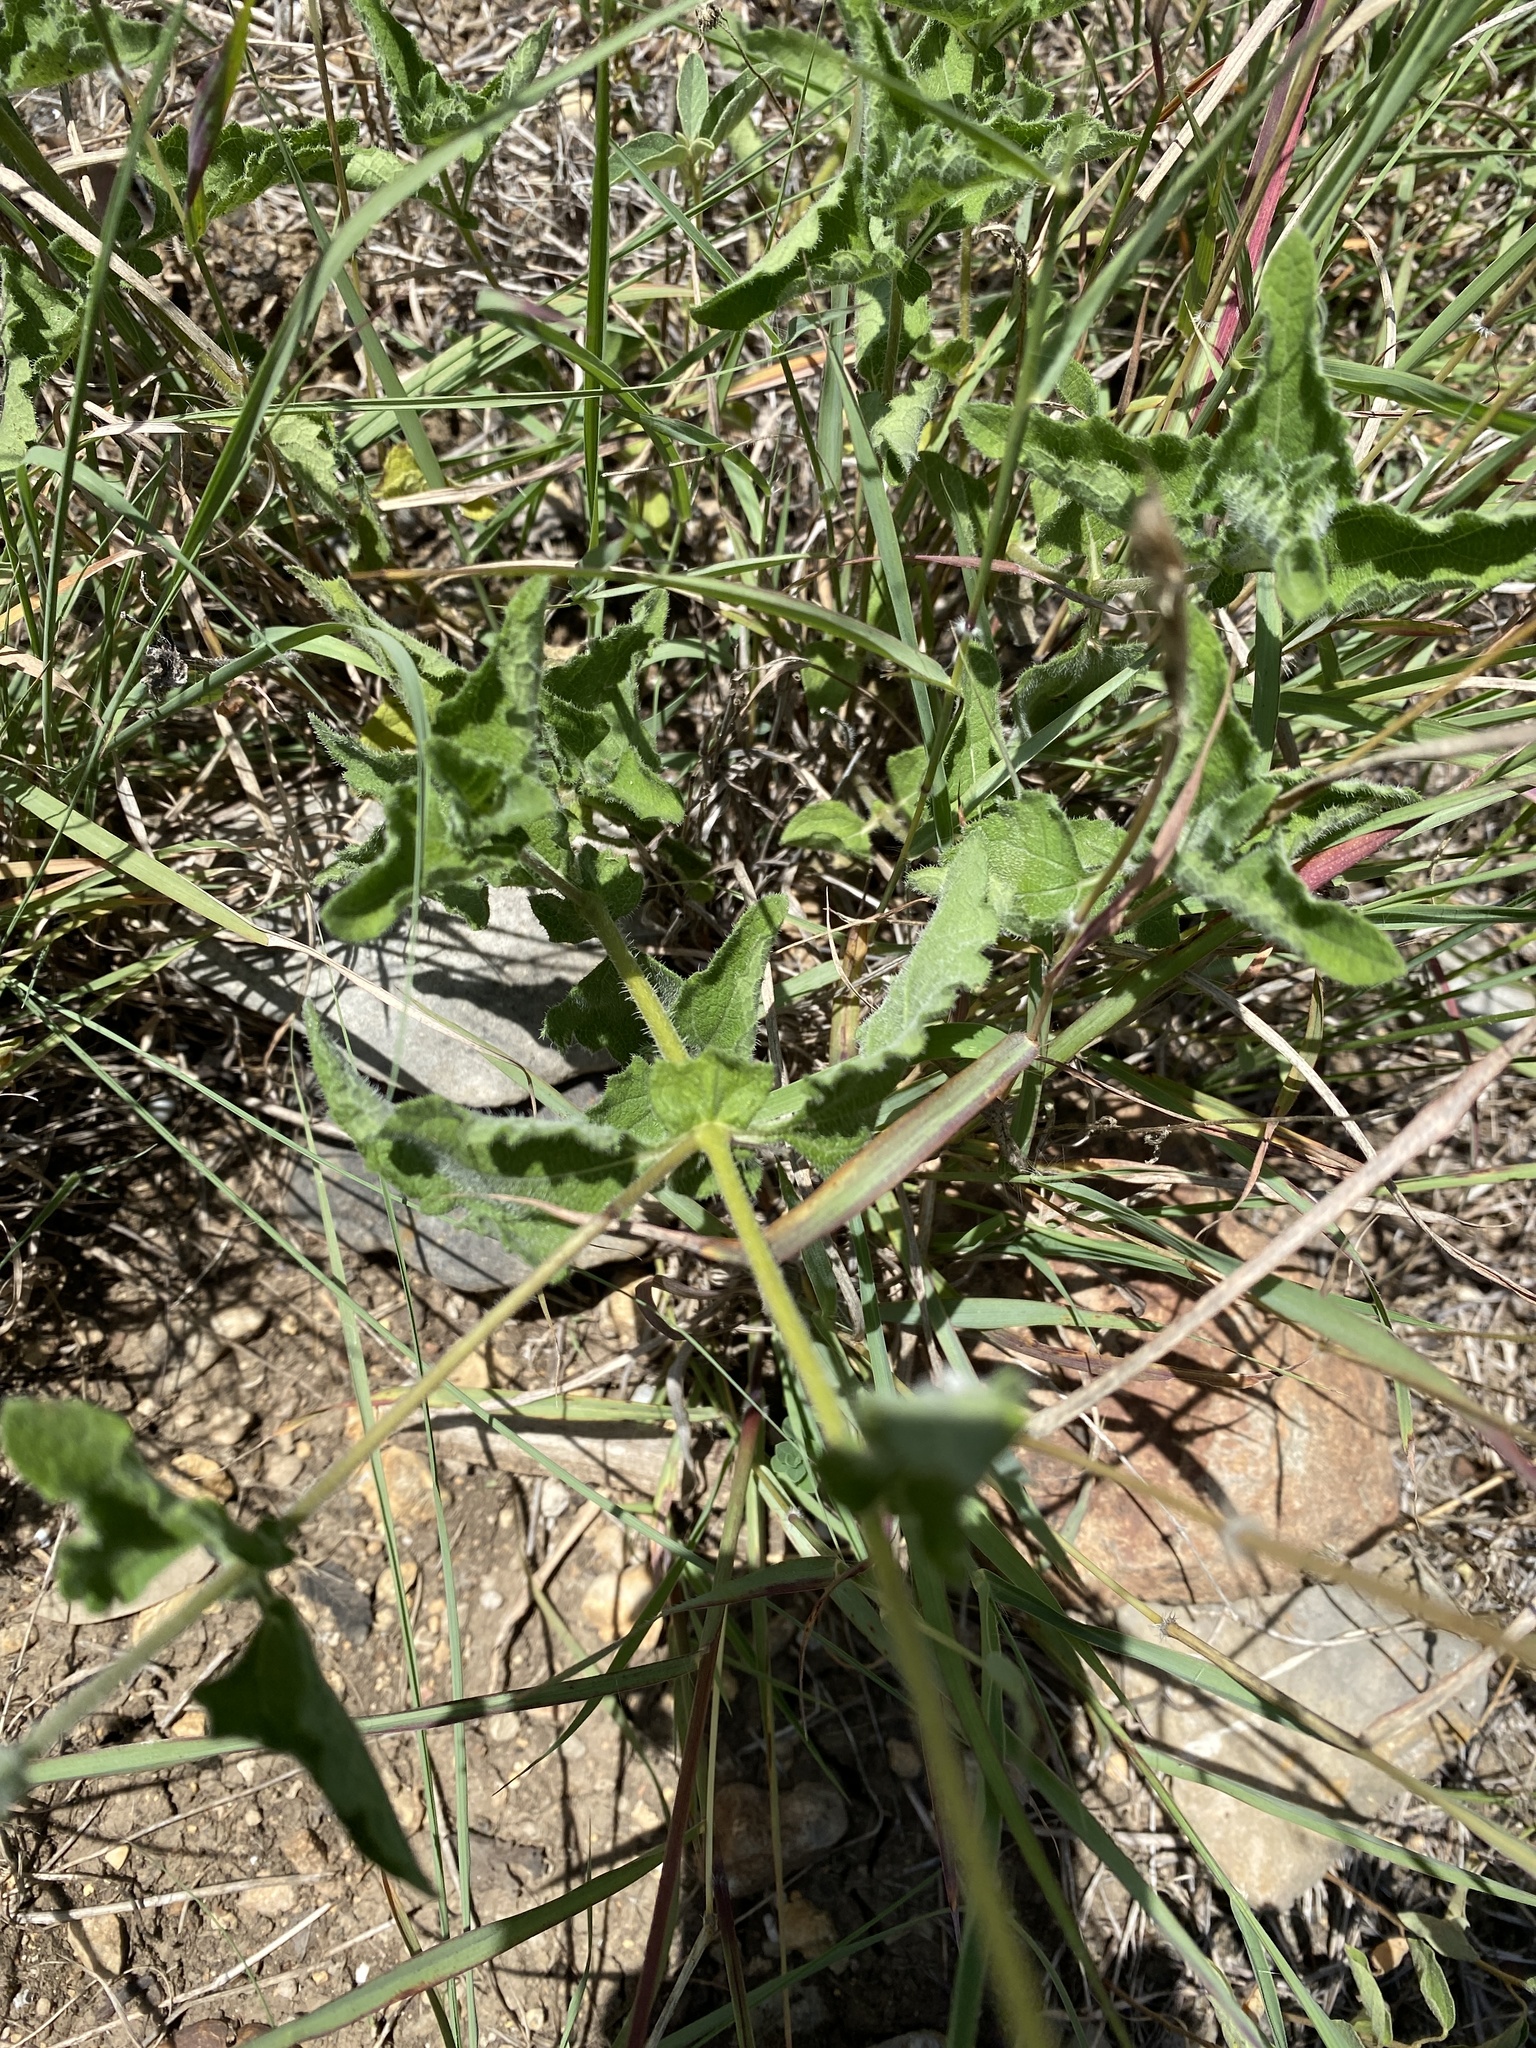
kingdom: Plantae
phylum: Tracheophyta
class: Magnoliopsida
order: Asterales
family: Asteraceae
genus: Simsia
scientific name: Simsia calva
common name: Awnless bush-sunflower
